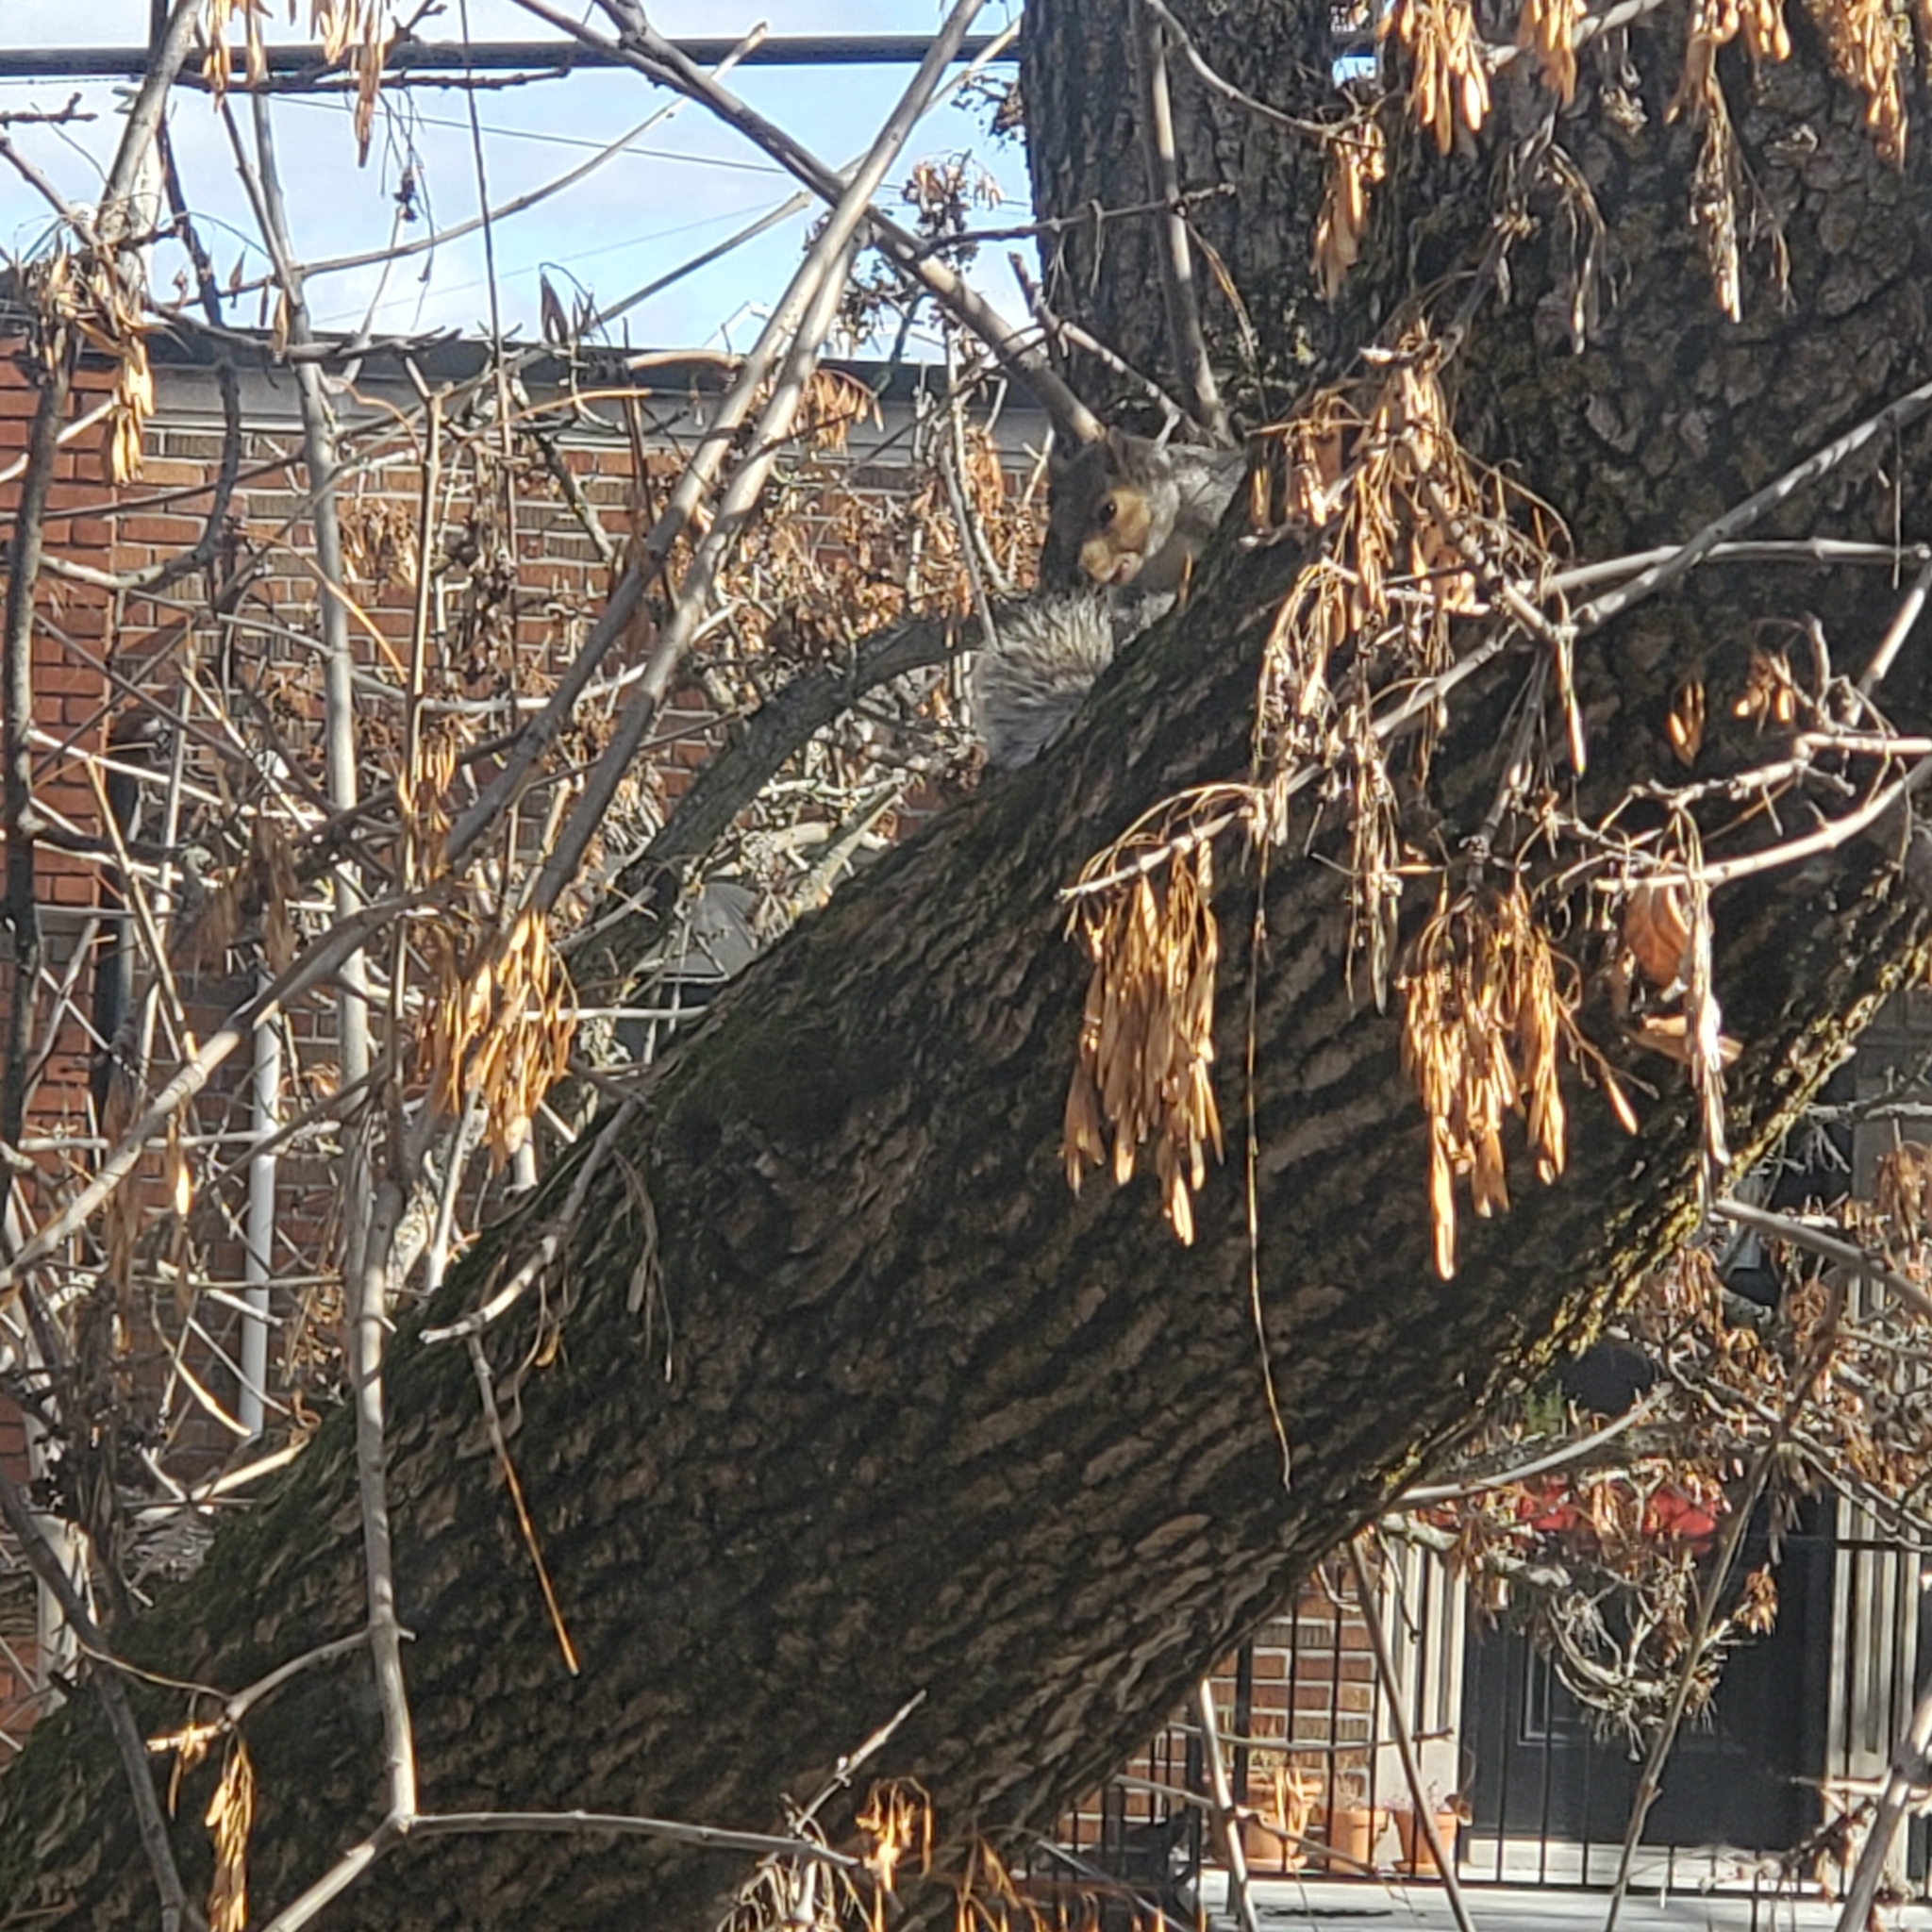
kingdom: Animalia
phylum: Chordata
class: Mammalia
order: Rodentia
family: Sciuridae
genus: Sciurus
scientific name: Sciurus carolinensis
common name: Eastern gray squirrel
